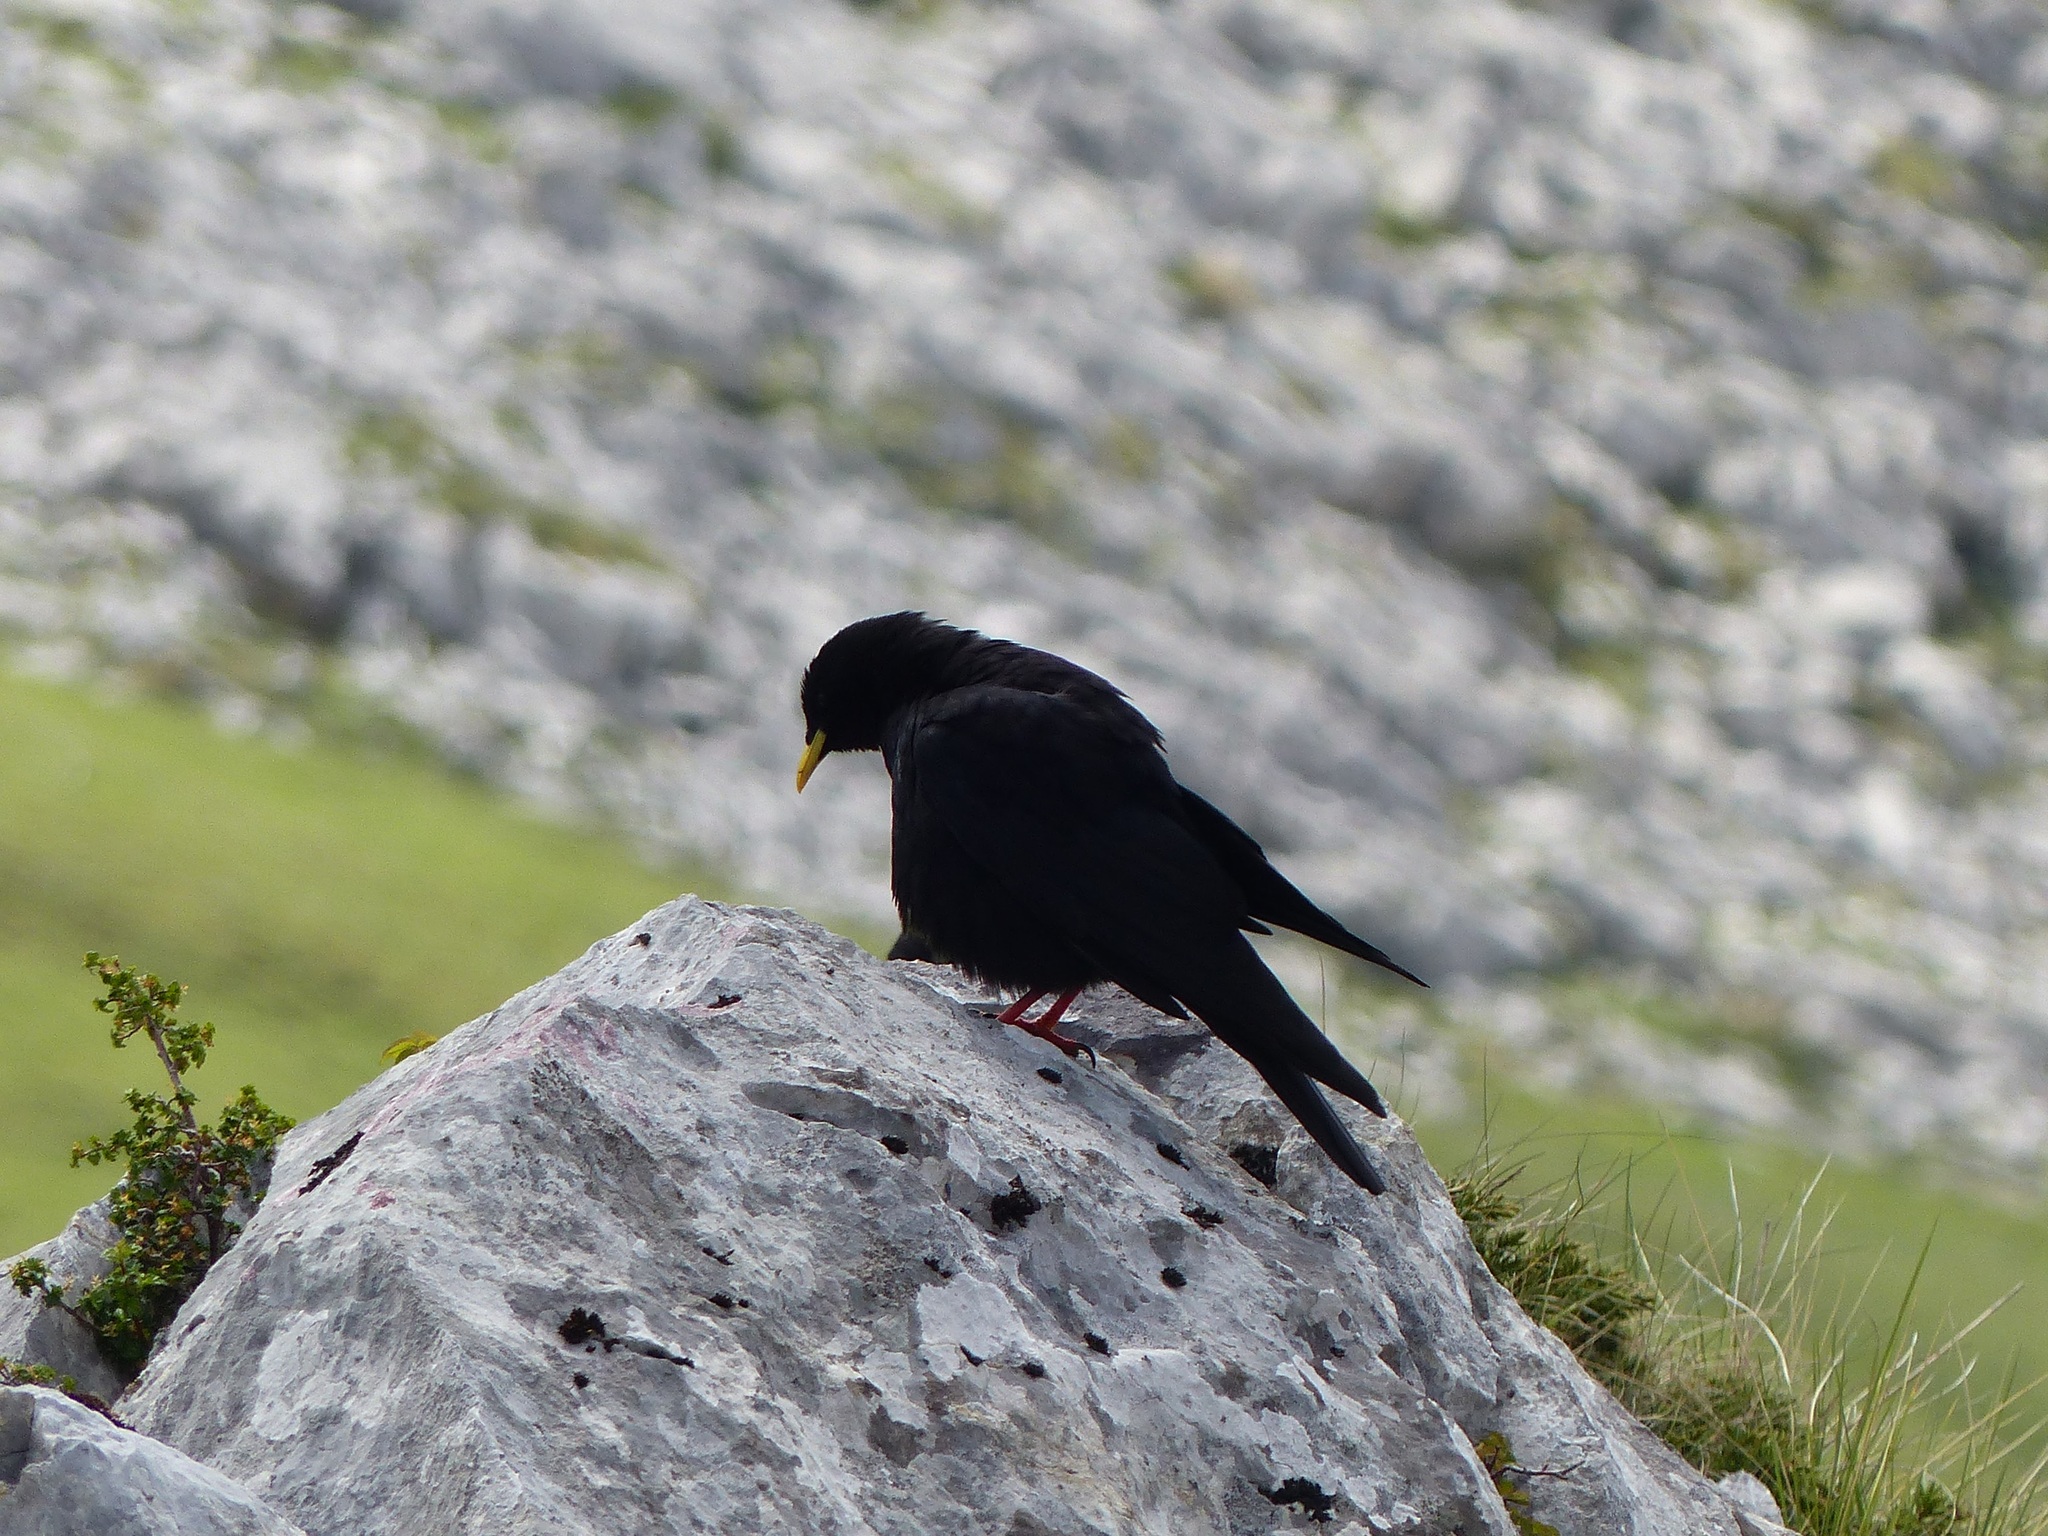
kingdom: Animalia
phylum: Chordata
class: Aves
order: Passeriformes
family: Corvidae
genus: Pyrrhocorax
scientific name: Pyrrhocorax graculus
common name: Alpine chough
